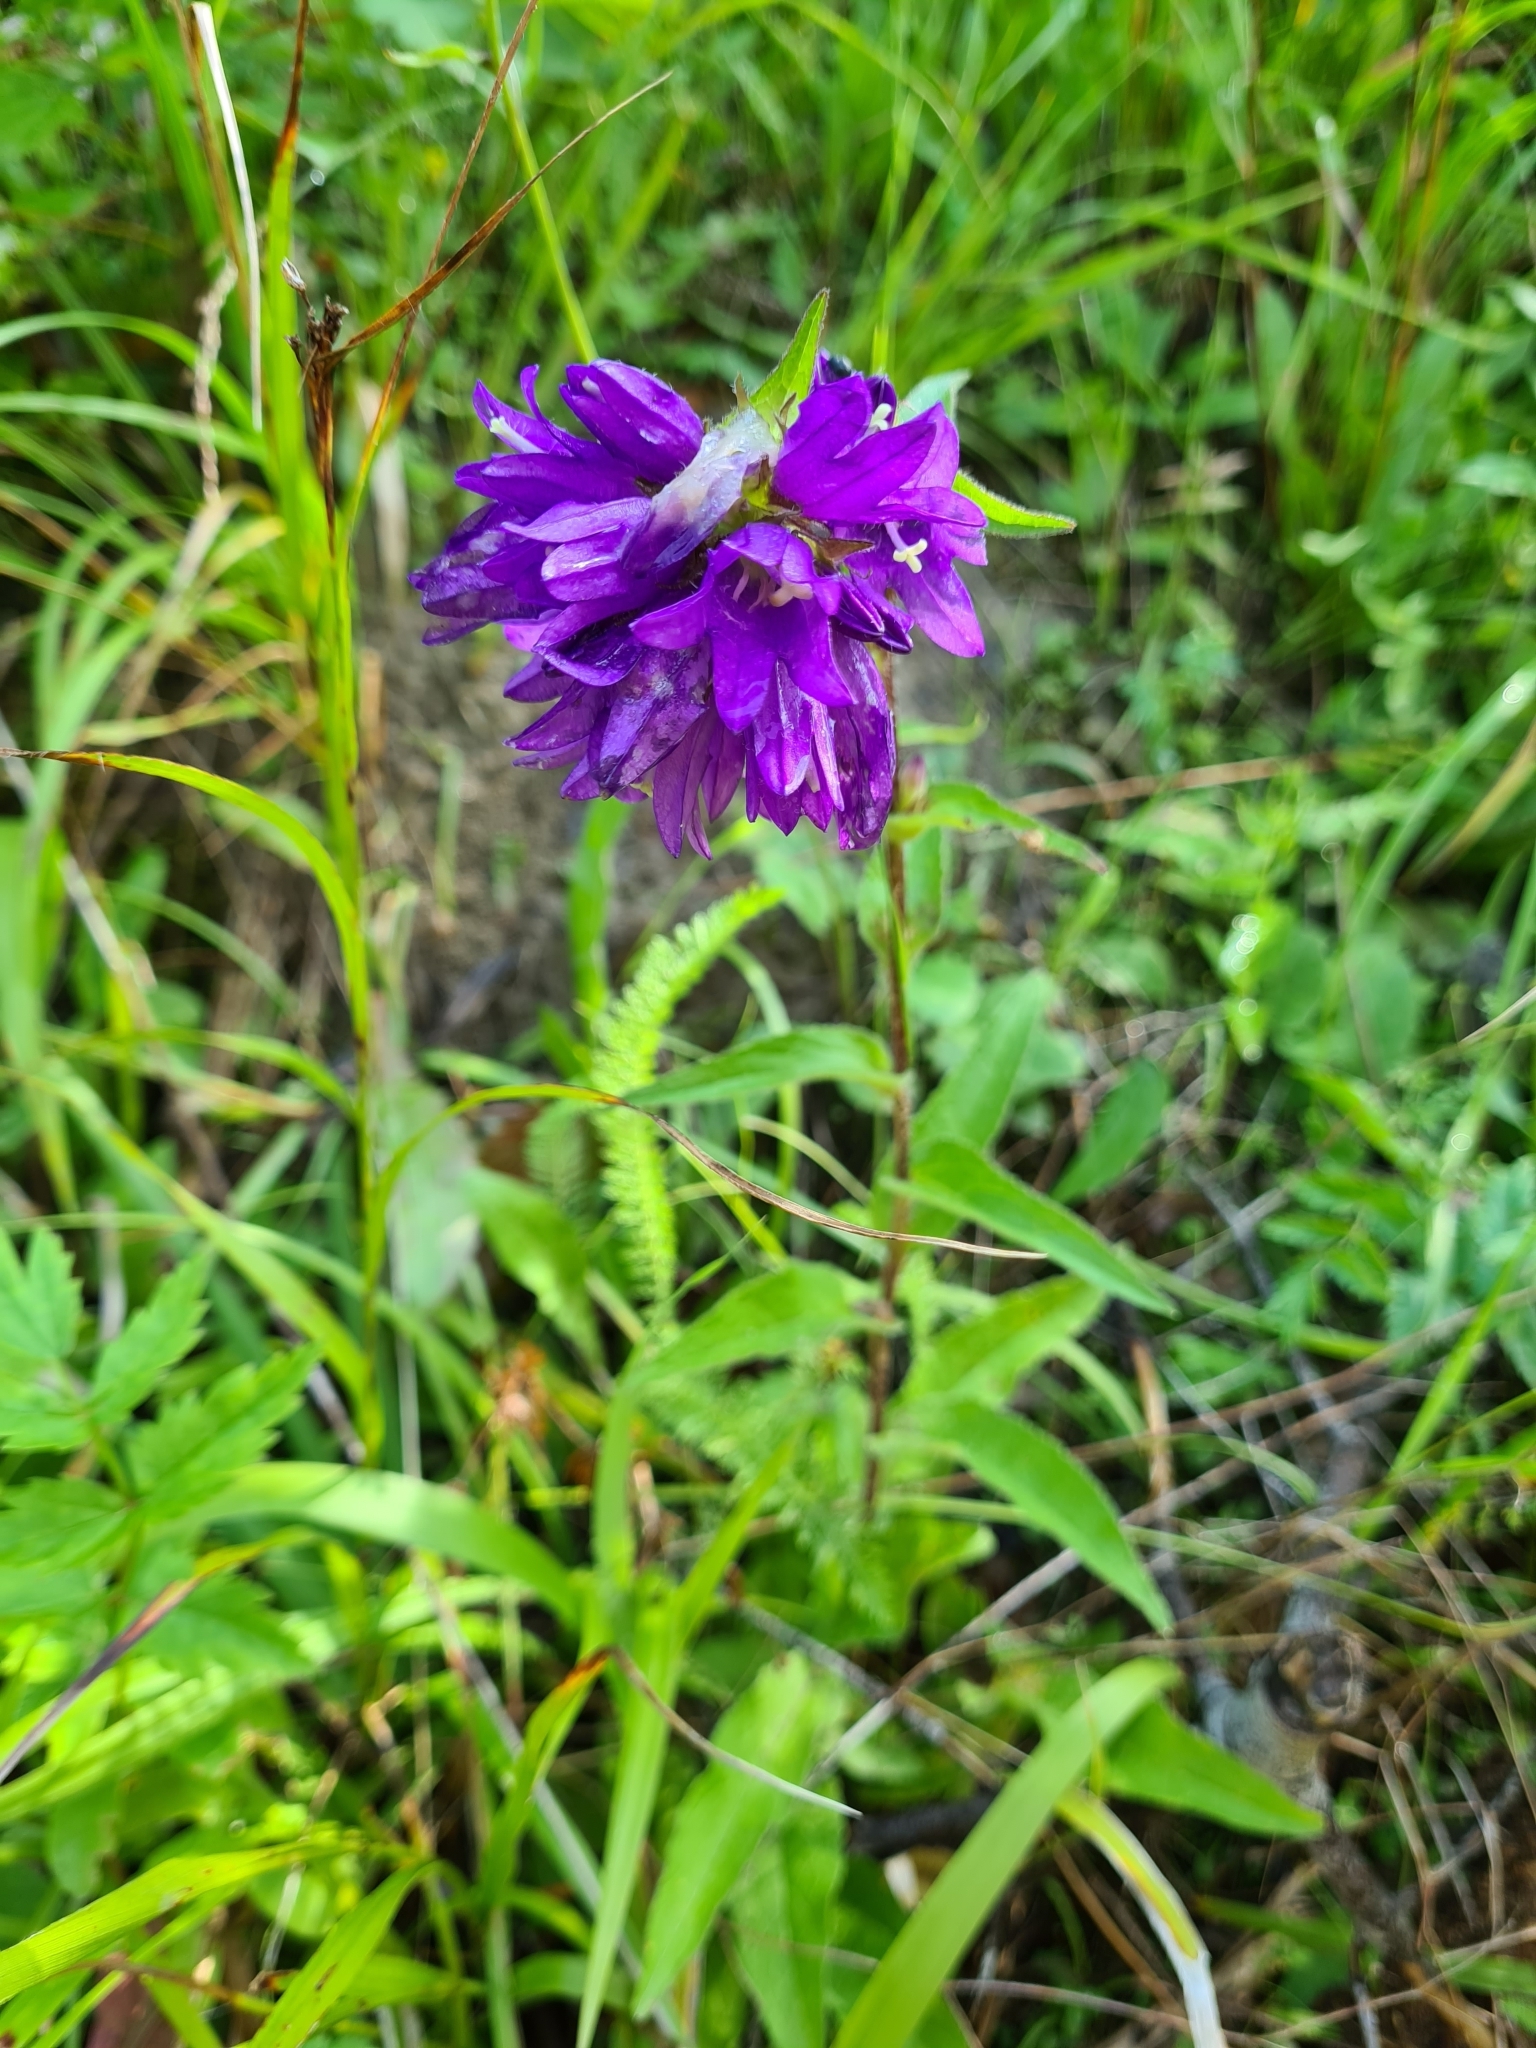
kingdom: Plantae
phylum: Tracheophyta
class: Magnoliopsida
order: Asterales
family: Campanulaceae
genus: Campanula
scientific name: Campanula glomerata
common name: Clustered bellflower
